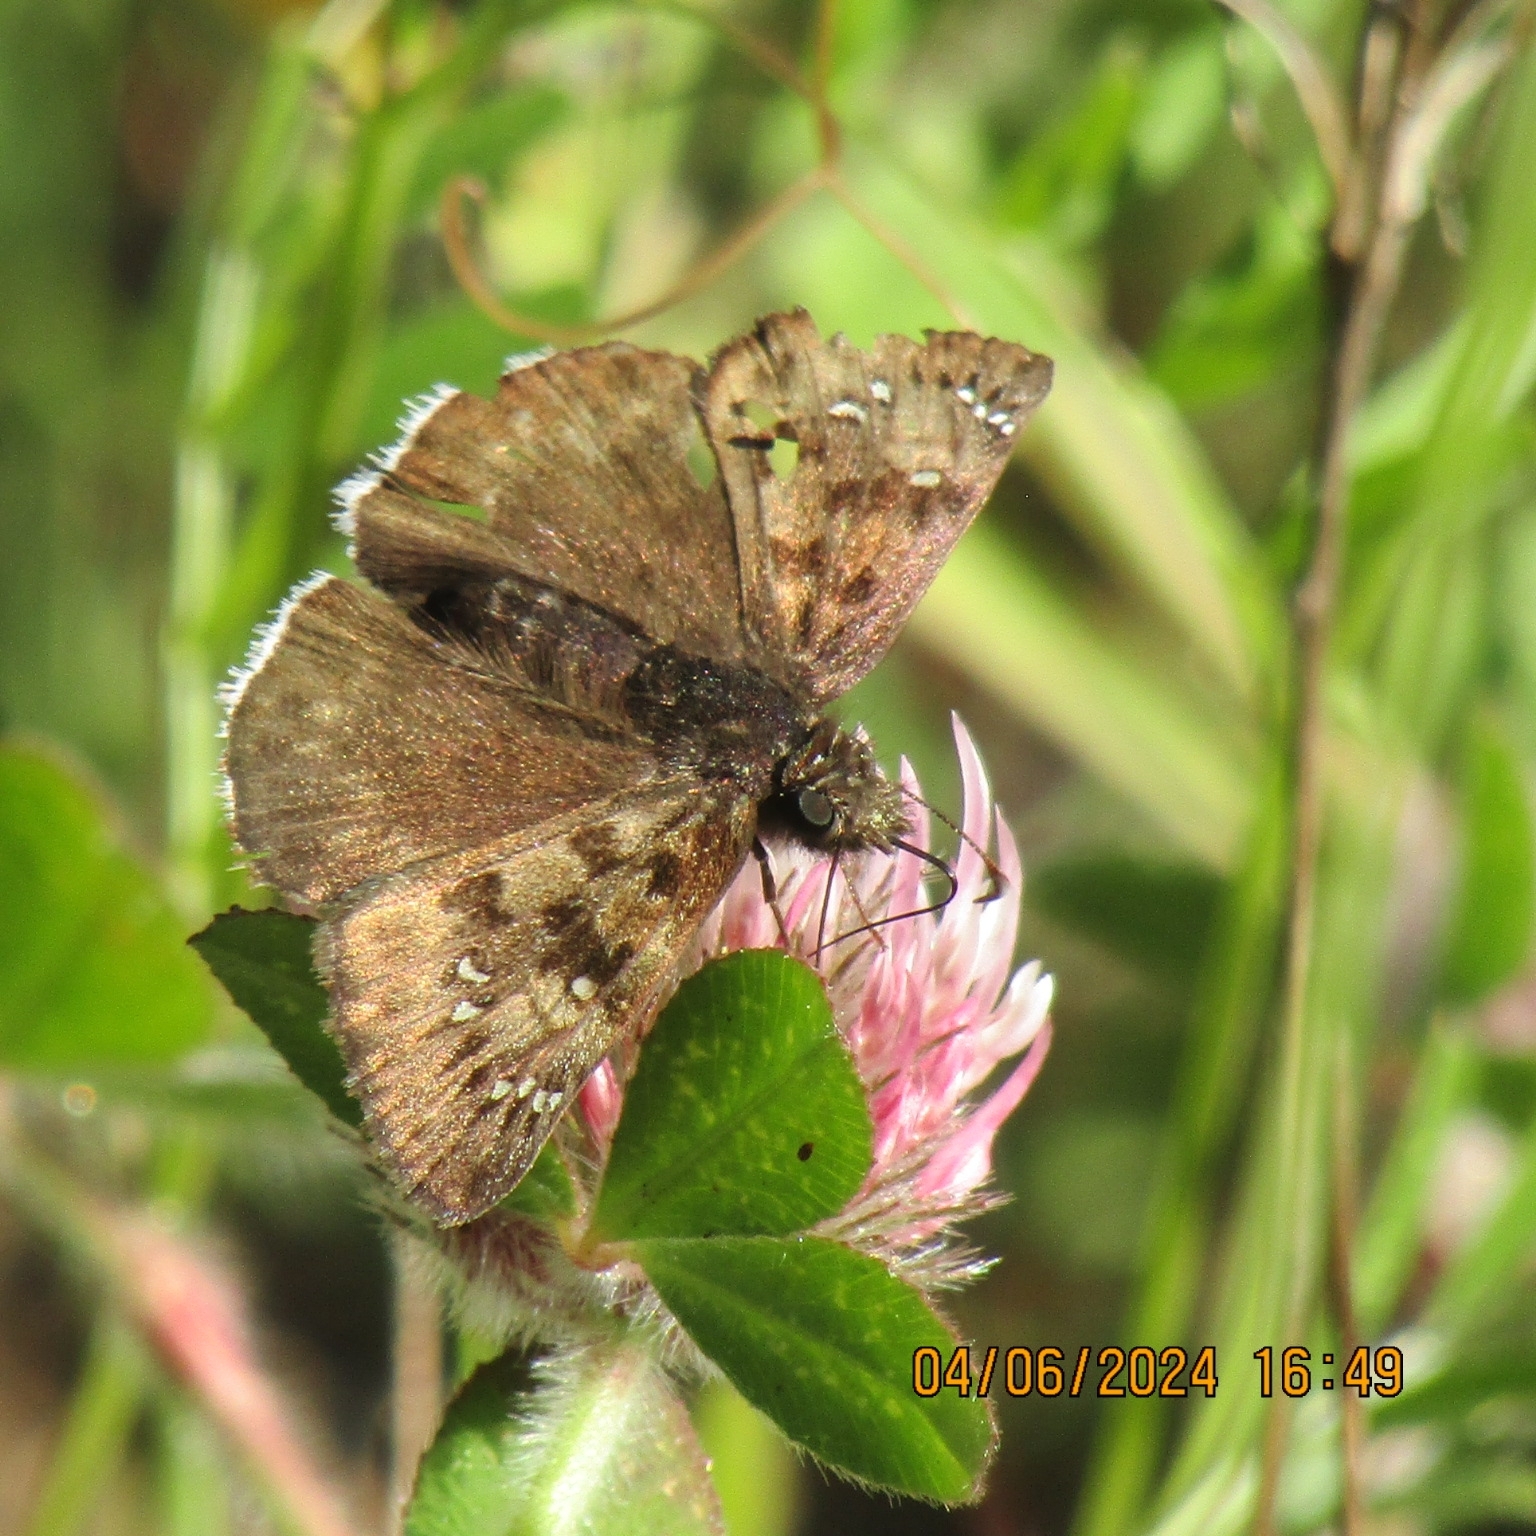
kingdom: Animalia
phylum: Arthropoda
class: Insecta
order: Lepidoptera
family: Hesperiidae
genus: Erynnis
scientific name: Erynnis tristis
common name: Mournful duskywing
